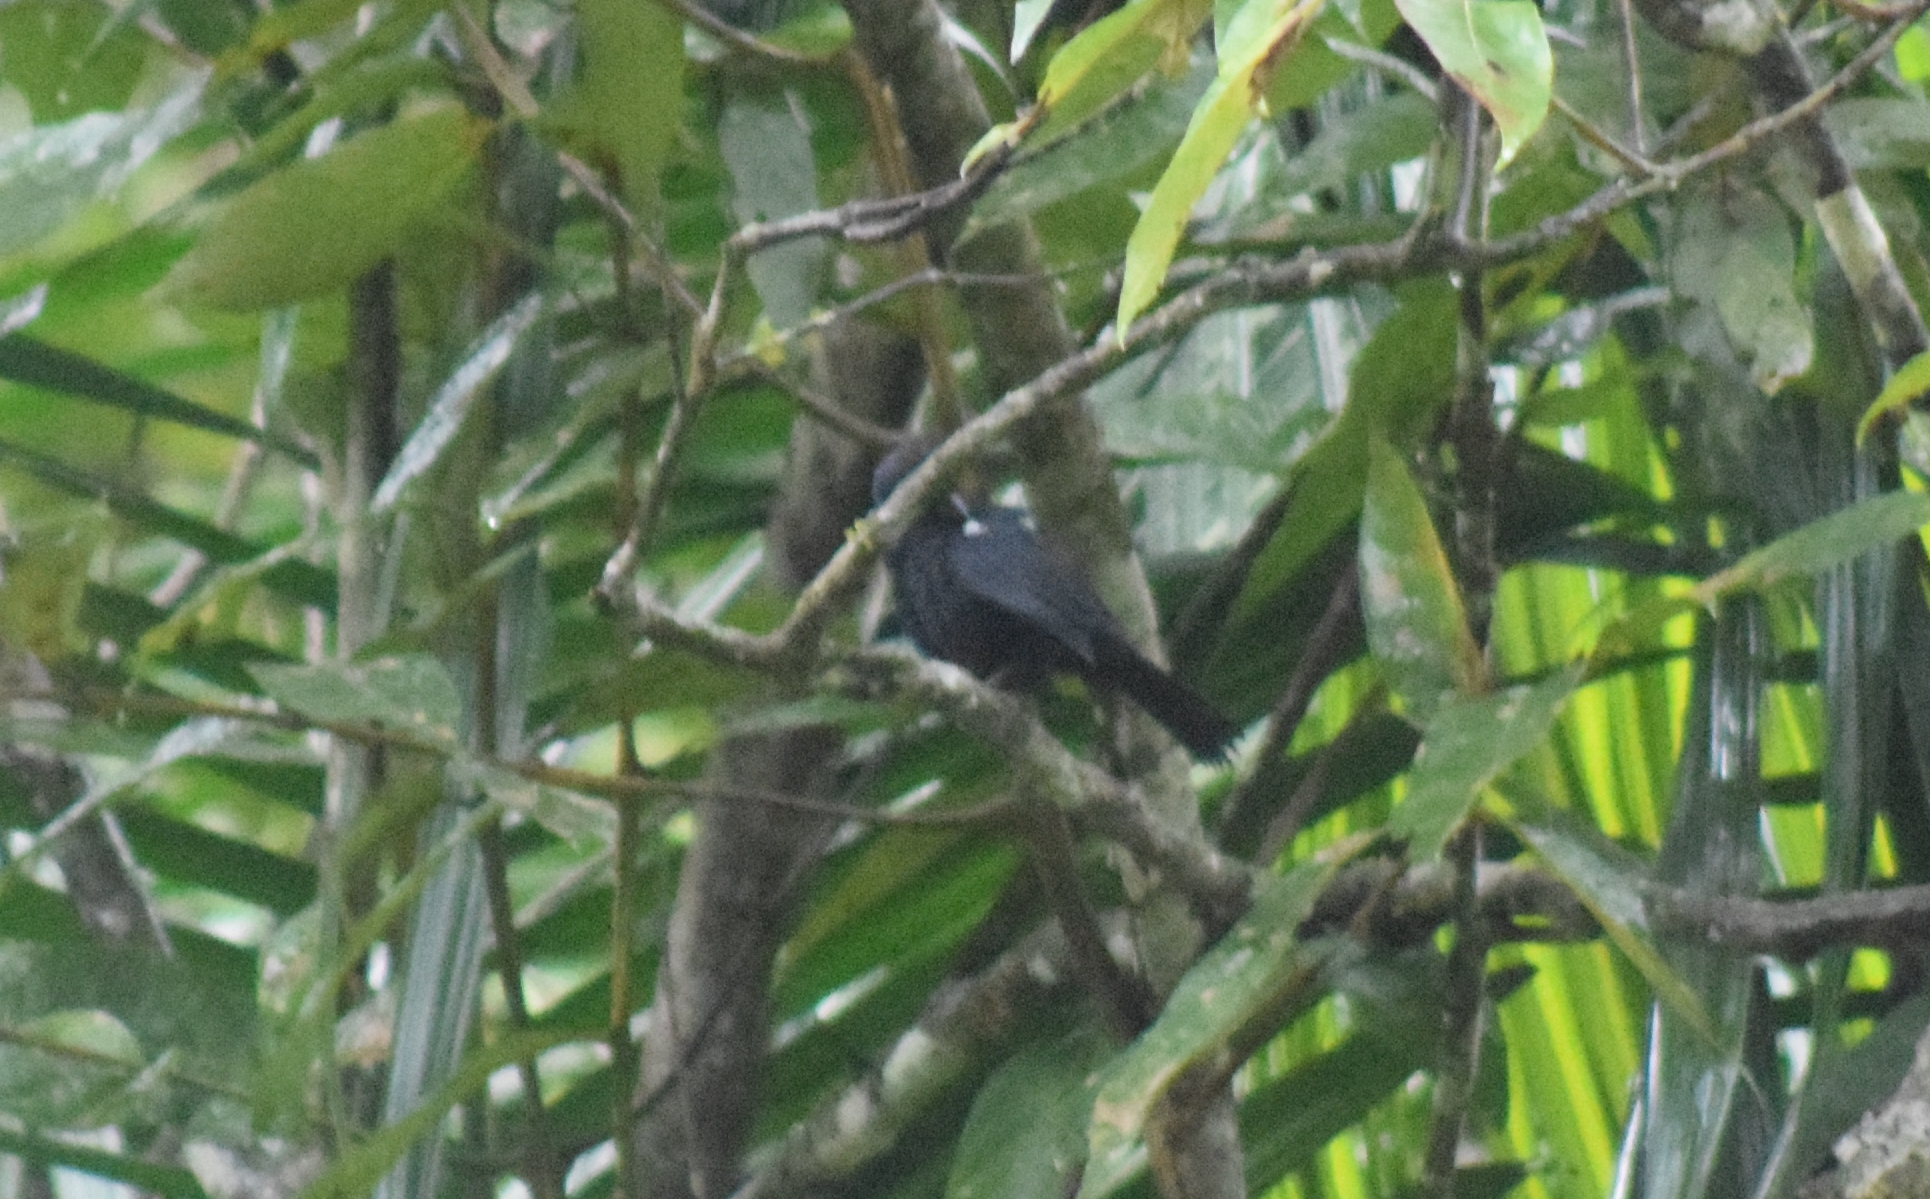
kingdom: Animalia
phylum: Chordata
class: Aves
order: Passeriformes
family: Thraupidae
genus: Tachyphonus
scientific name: Tachyphonus coronatus
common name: Ruby-crowned tanager
